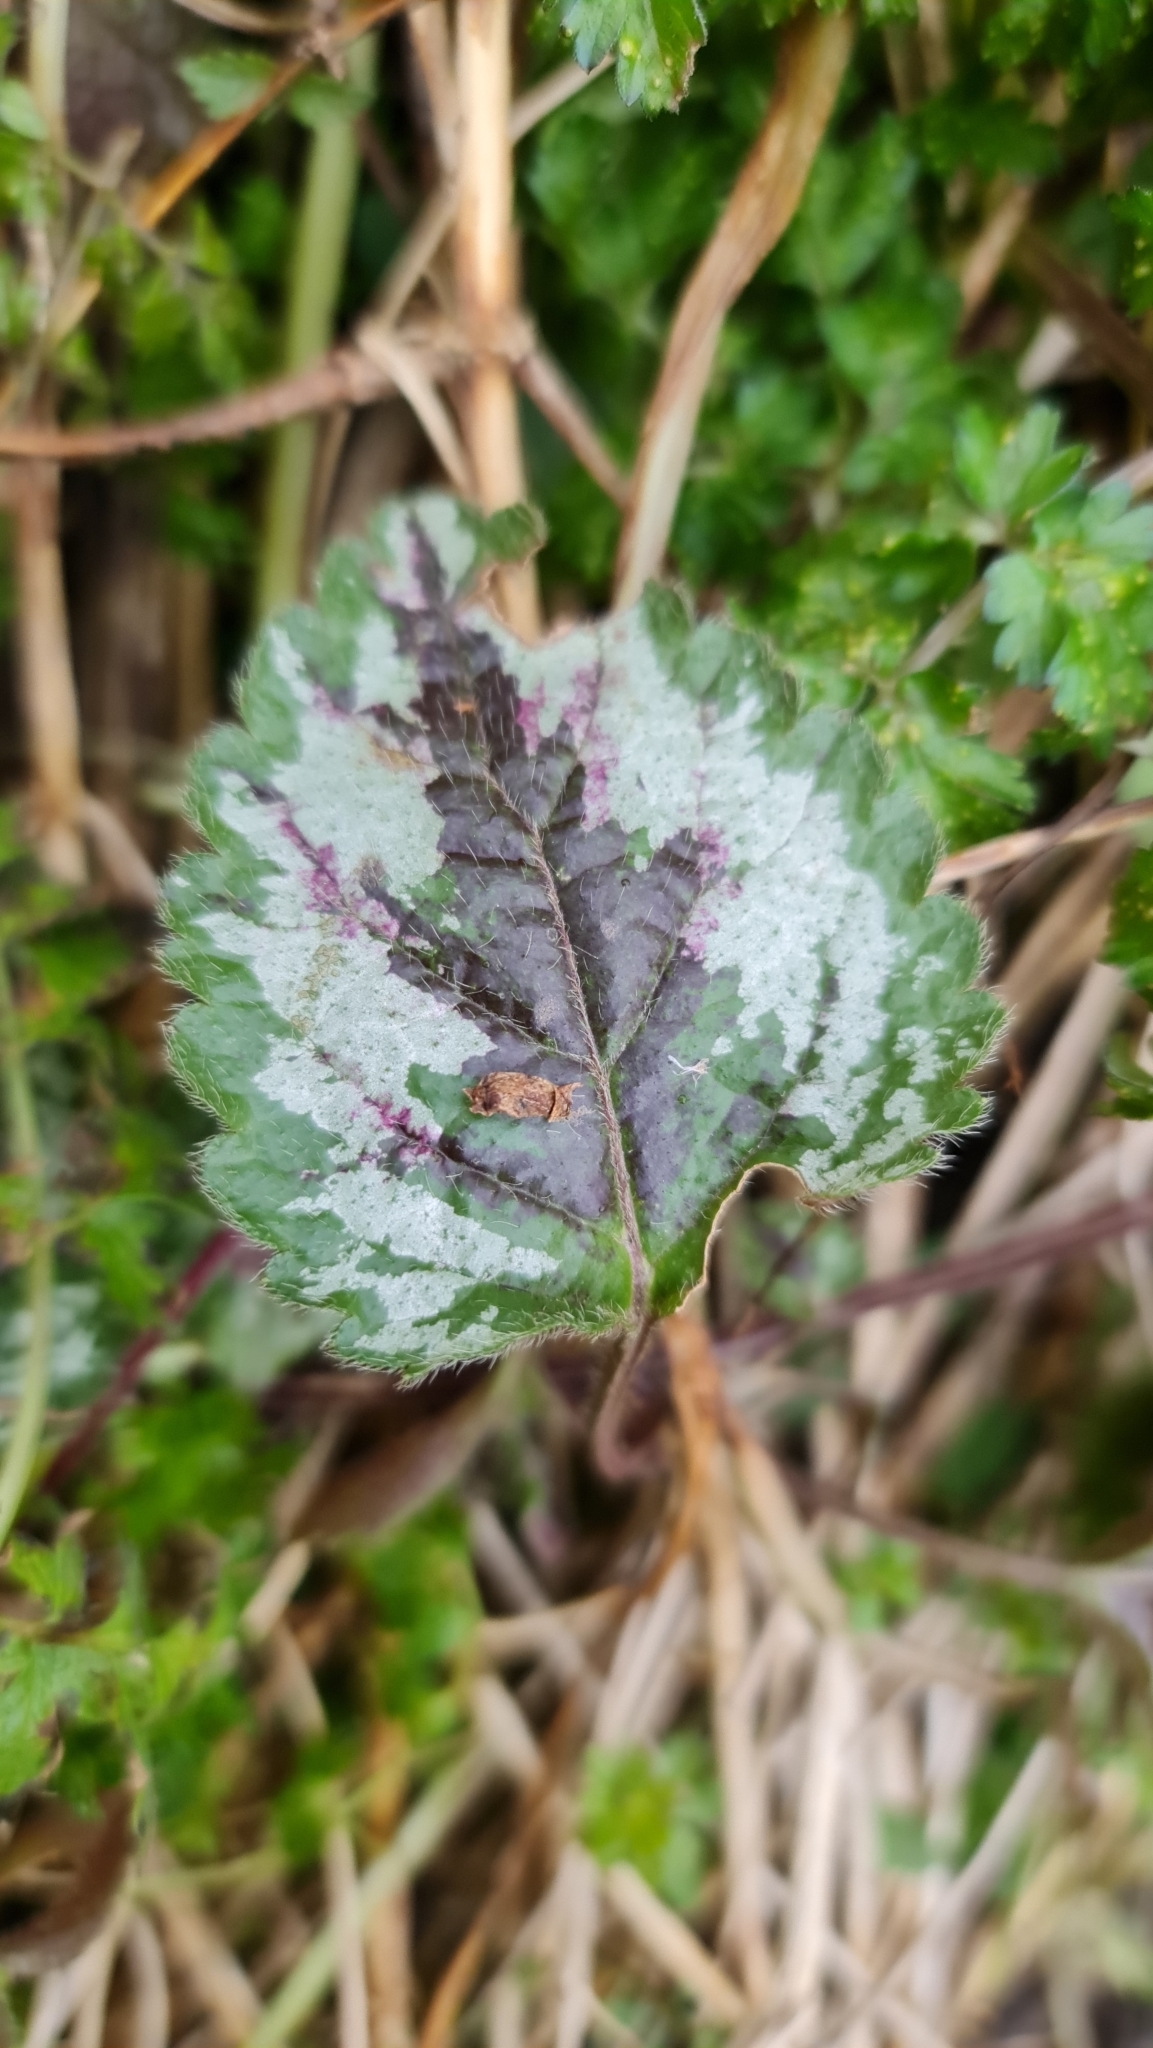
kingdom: Plantae
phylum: Tracheophyta
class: Magnoliopsida
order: Lamiales
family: Lamiaceae
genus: Lamium
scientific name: Lamium galeobdolon
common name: Yellow archangel
